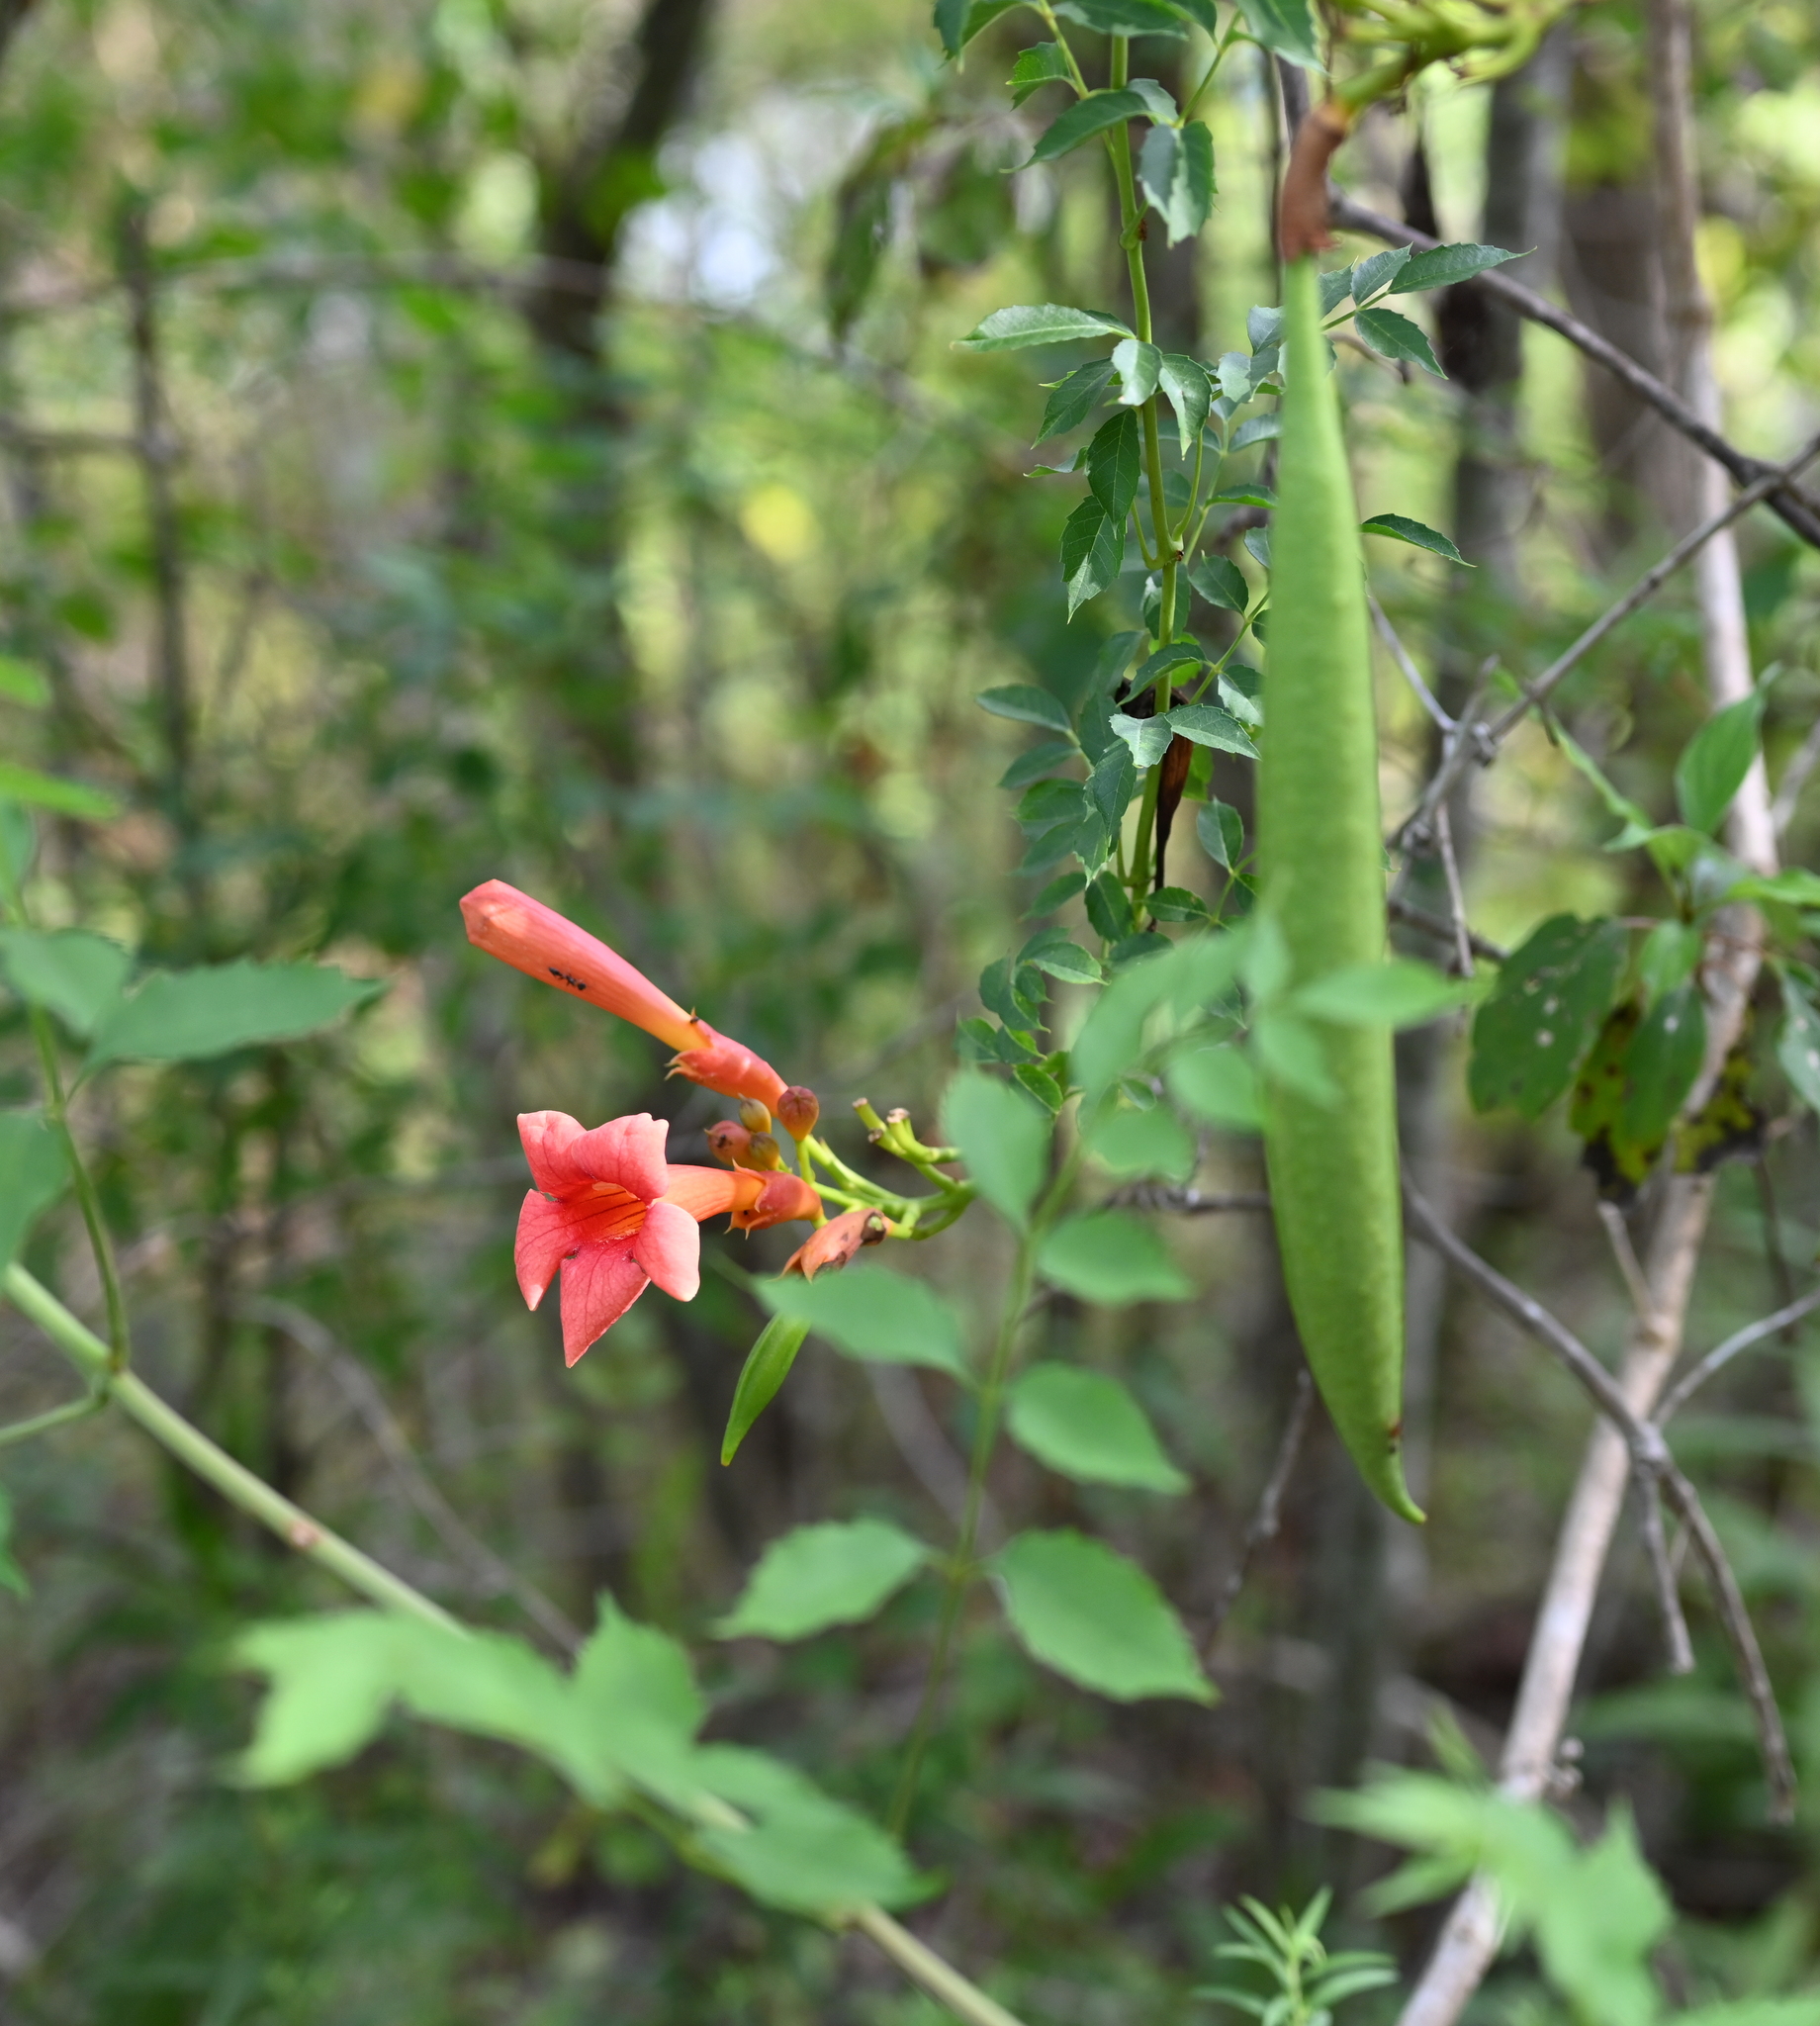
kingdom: Plantae
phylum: Tracheophyta
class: Magnoliopsida
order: Lamiales
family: Bignoniaceae
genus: Campsis
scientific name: Campsis radicans
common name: Trumpet-creeper
